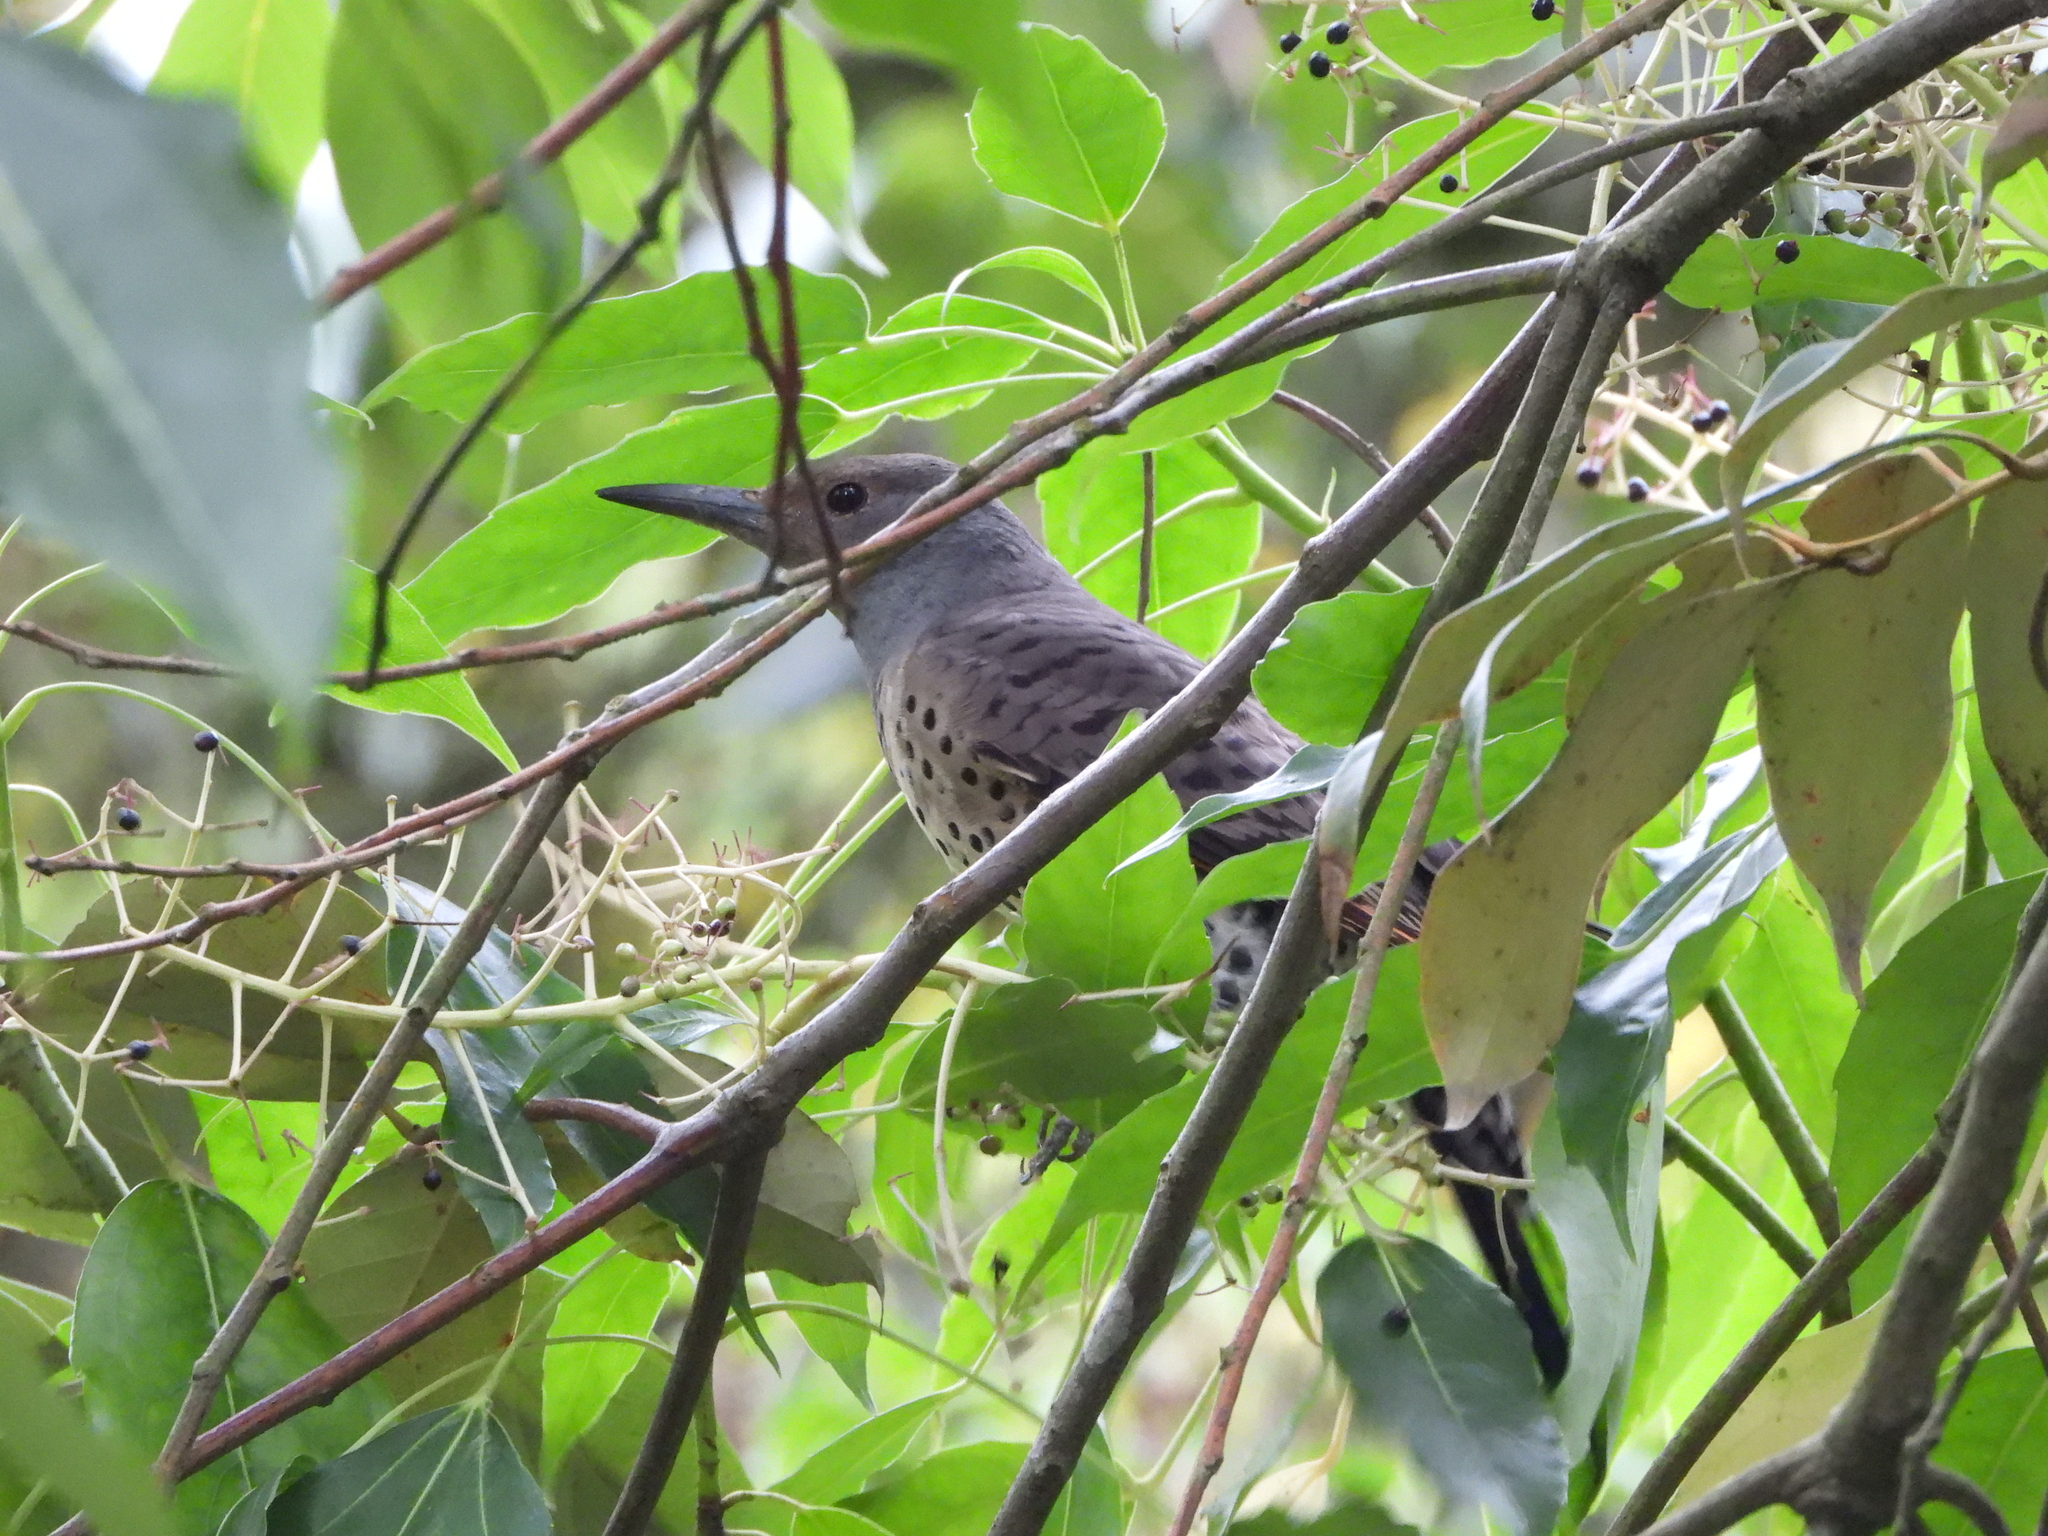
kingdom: Animalia
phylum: Chordata
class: Aves
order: Piciformes
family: Picidae
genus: Colaptes
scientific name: Colaptes auratus
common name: Northern flicker
